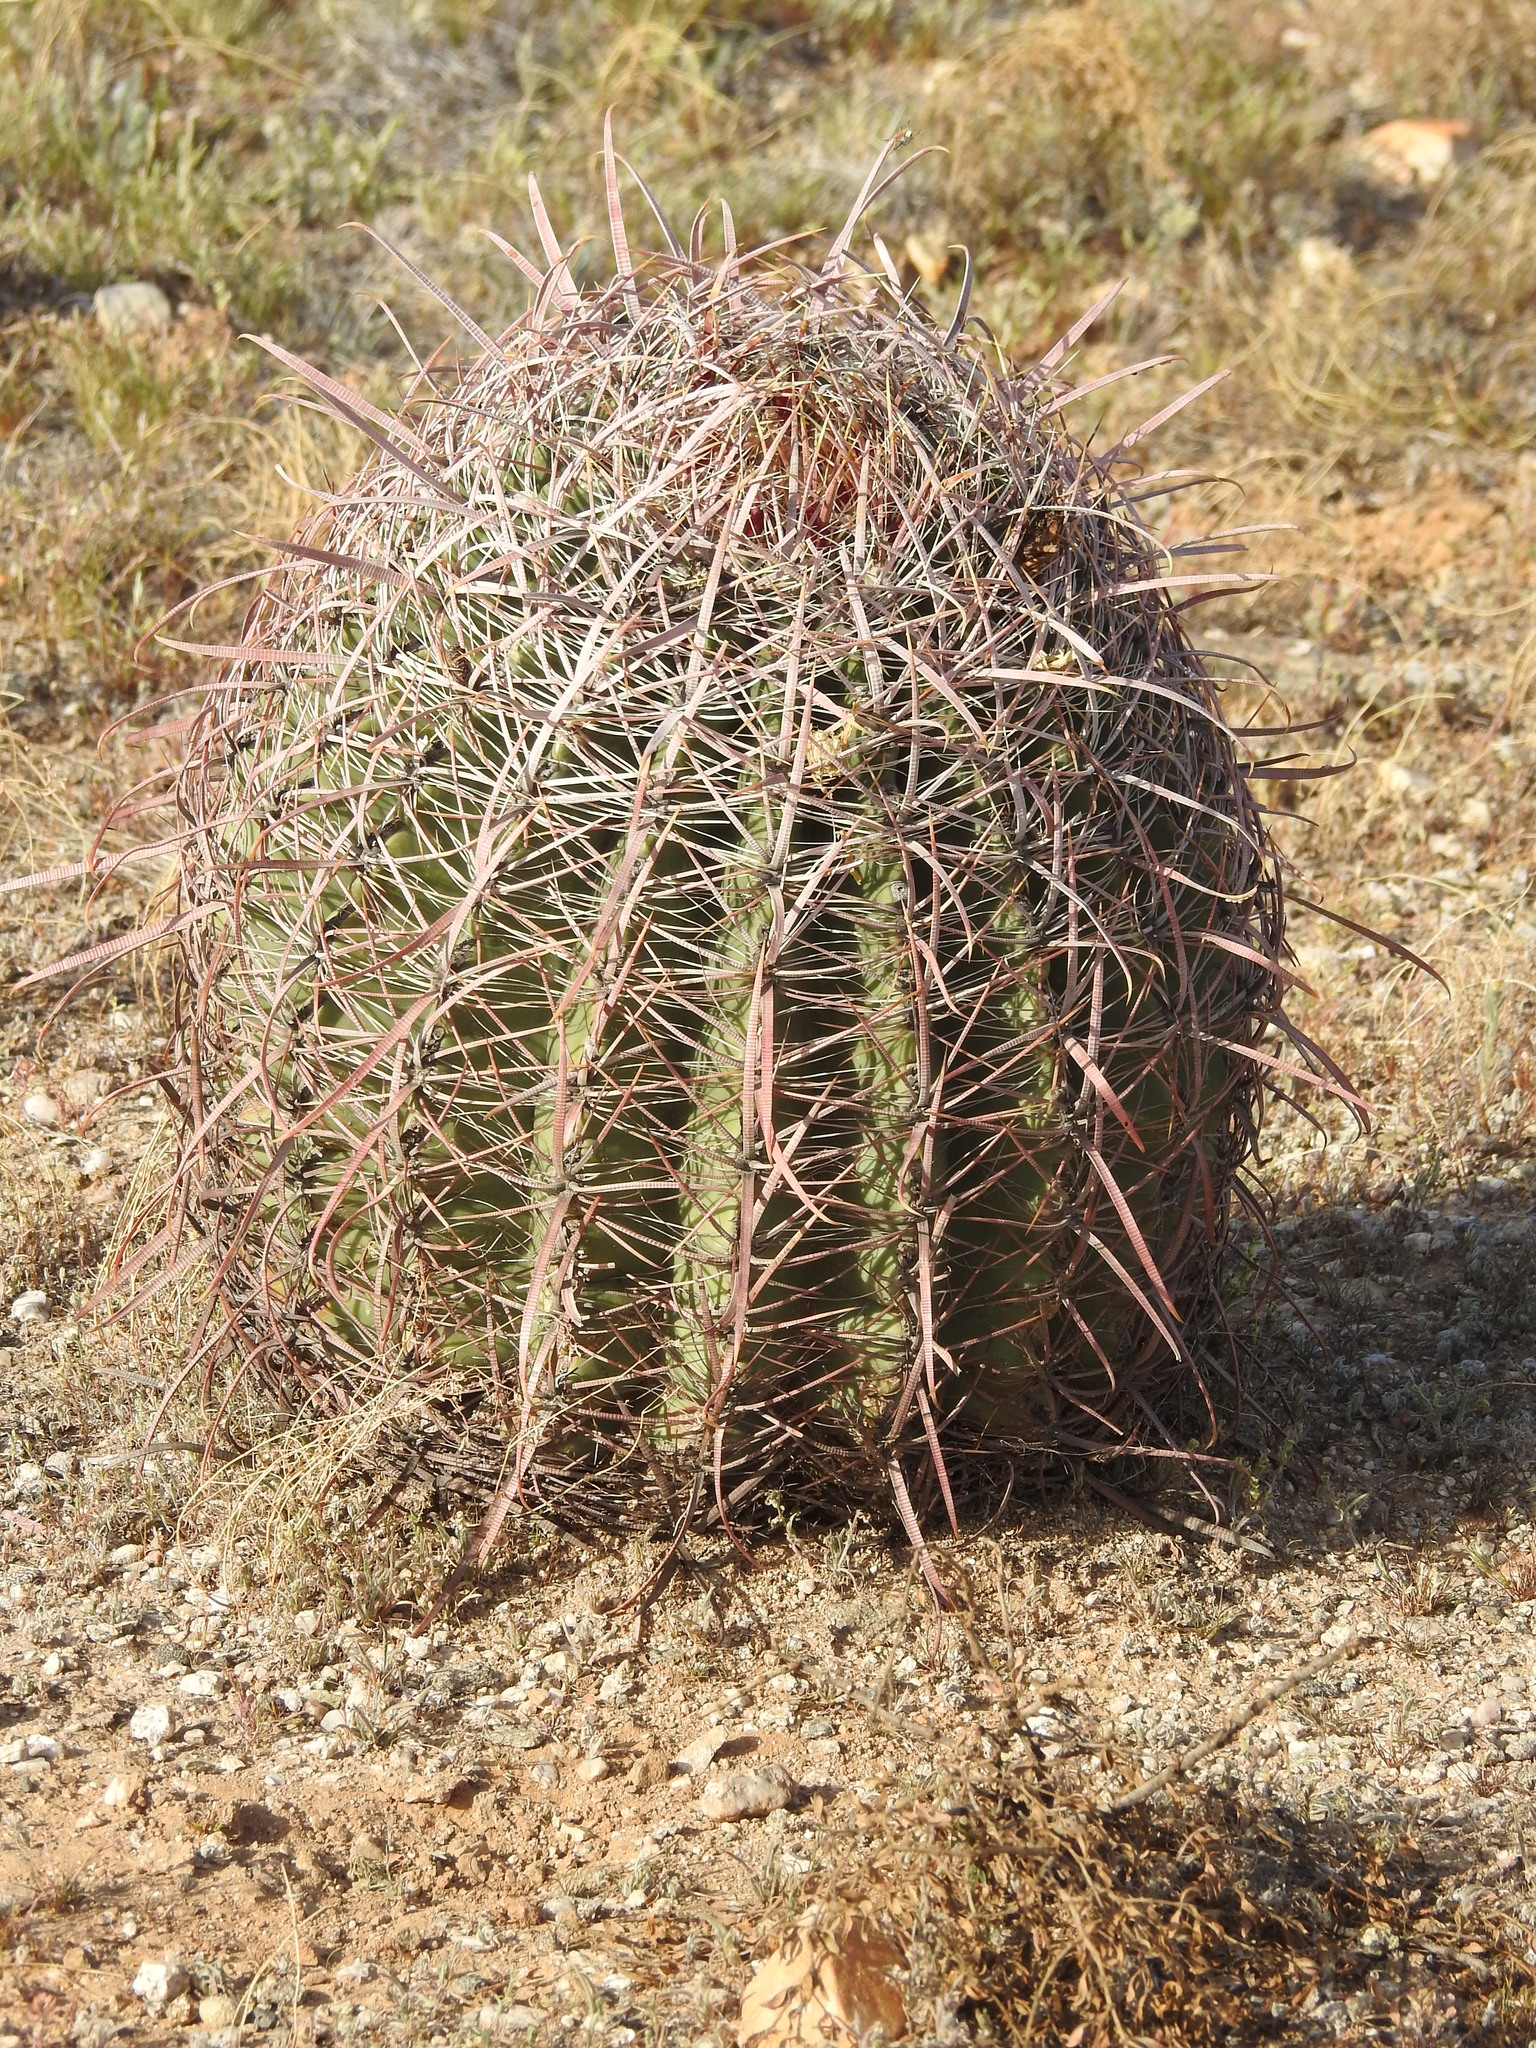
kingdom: Plantae
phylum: Tracheophyta
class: Magnoliopsida
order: Caryophyllales
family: Cactaceae
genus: Ferocactus
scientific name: Ferocactus cylindraceus
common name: California barrel cactus
